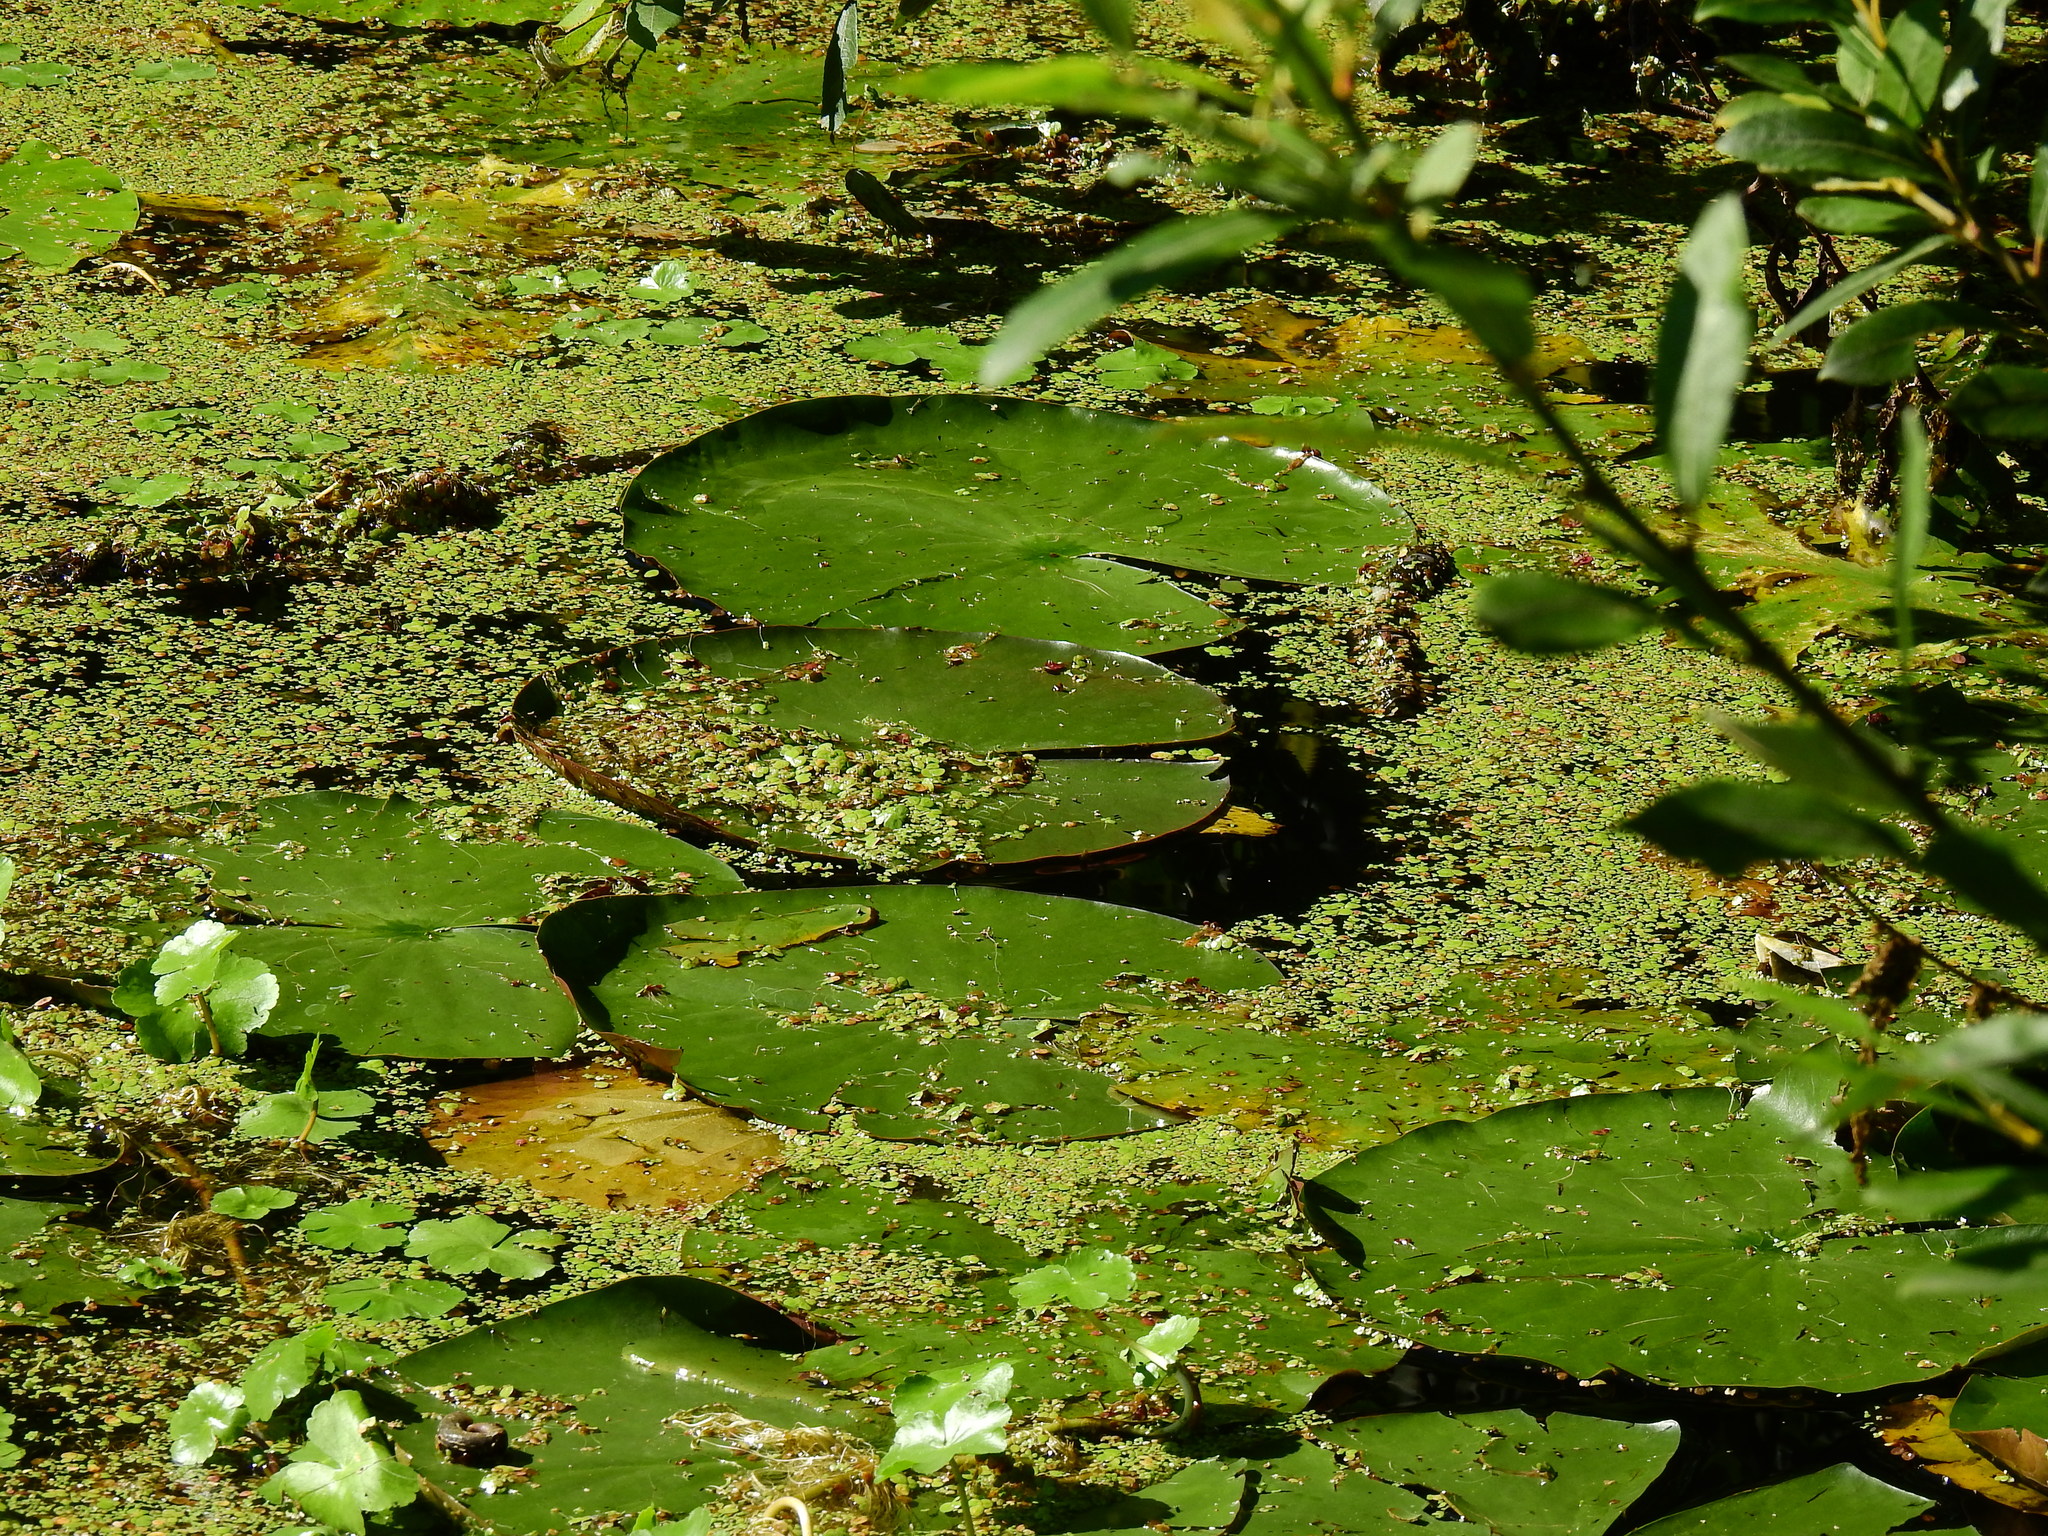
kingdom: Plantae
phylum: Tracheophyta
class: Magnoliopsida
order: Nymphaeales
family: Nymphaeaceae
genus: Nuphar
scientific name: Nuphar lutea
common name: Yellow water-lily
